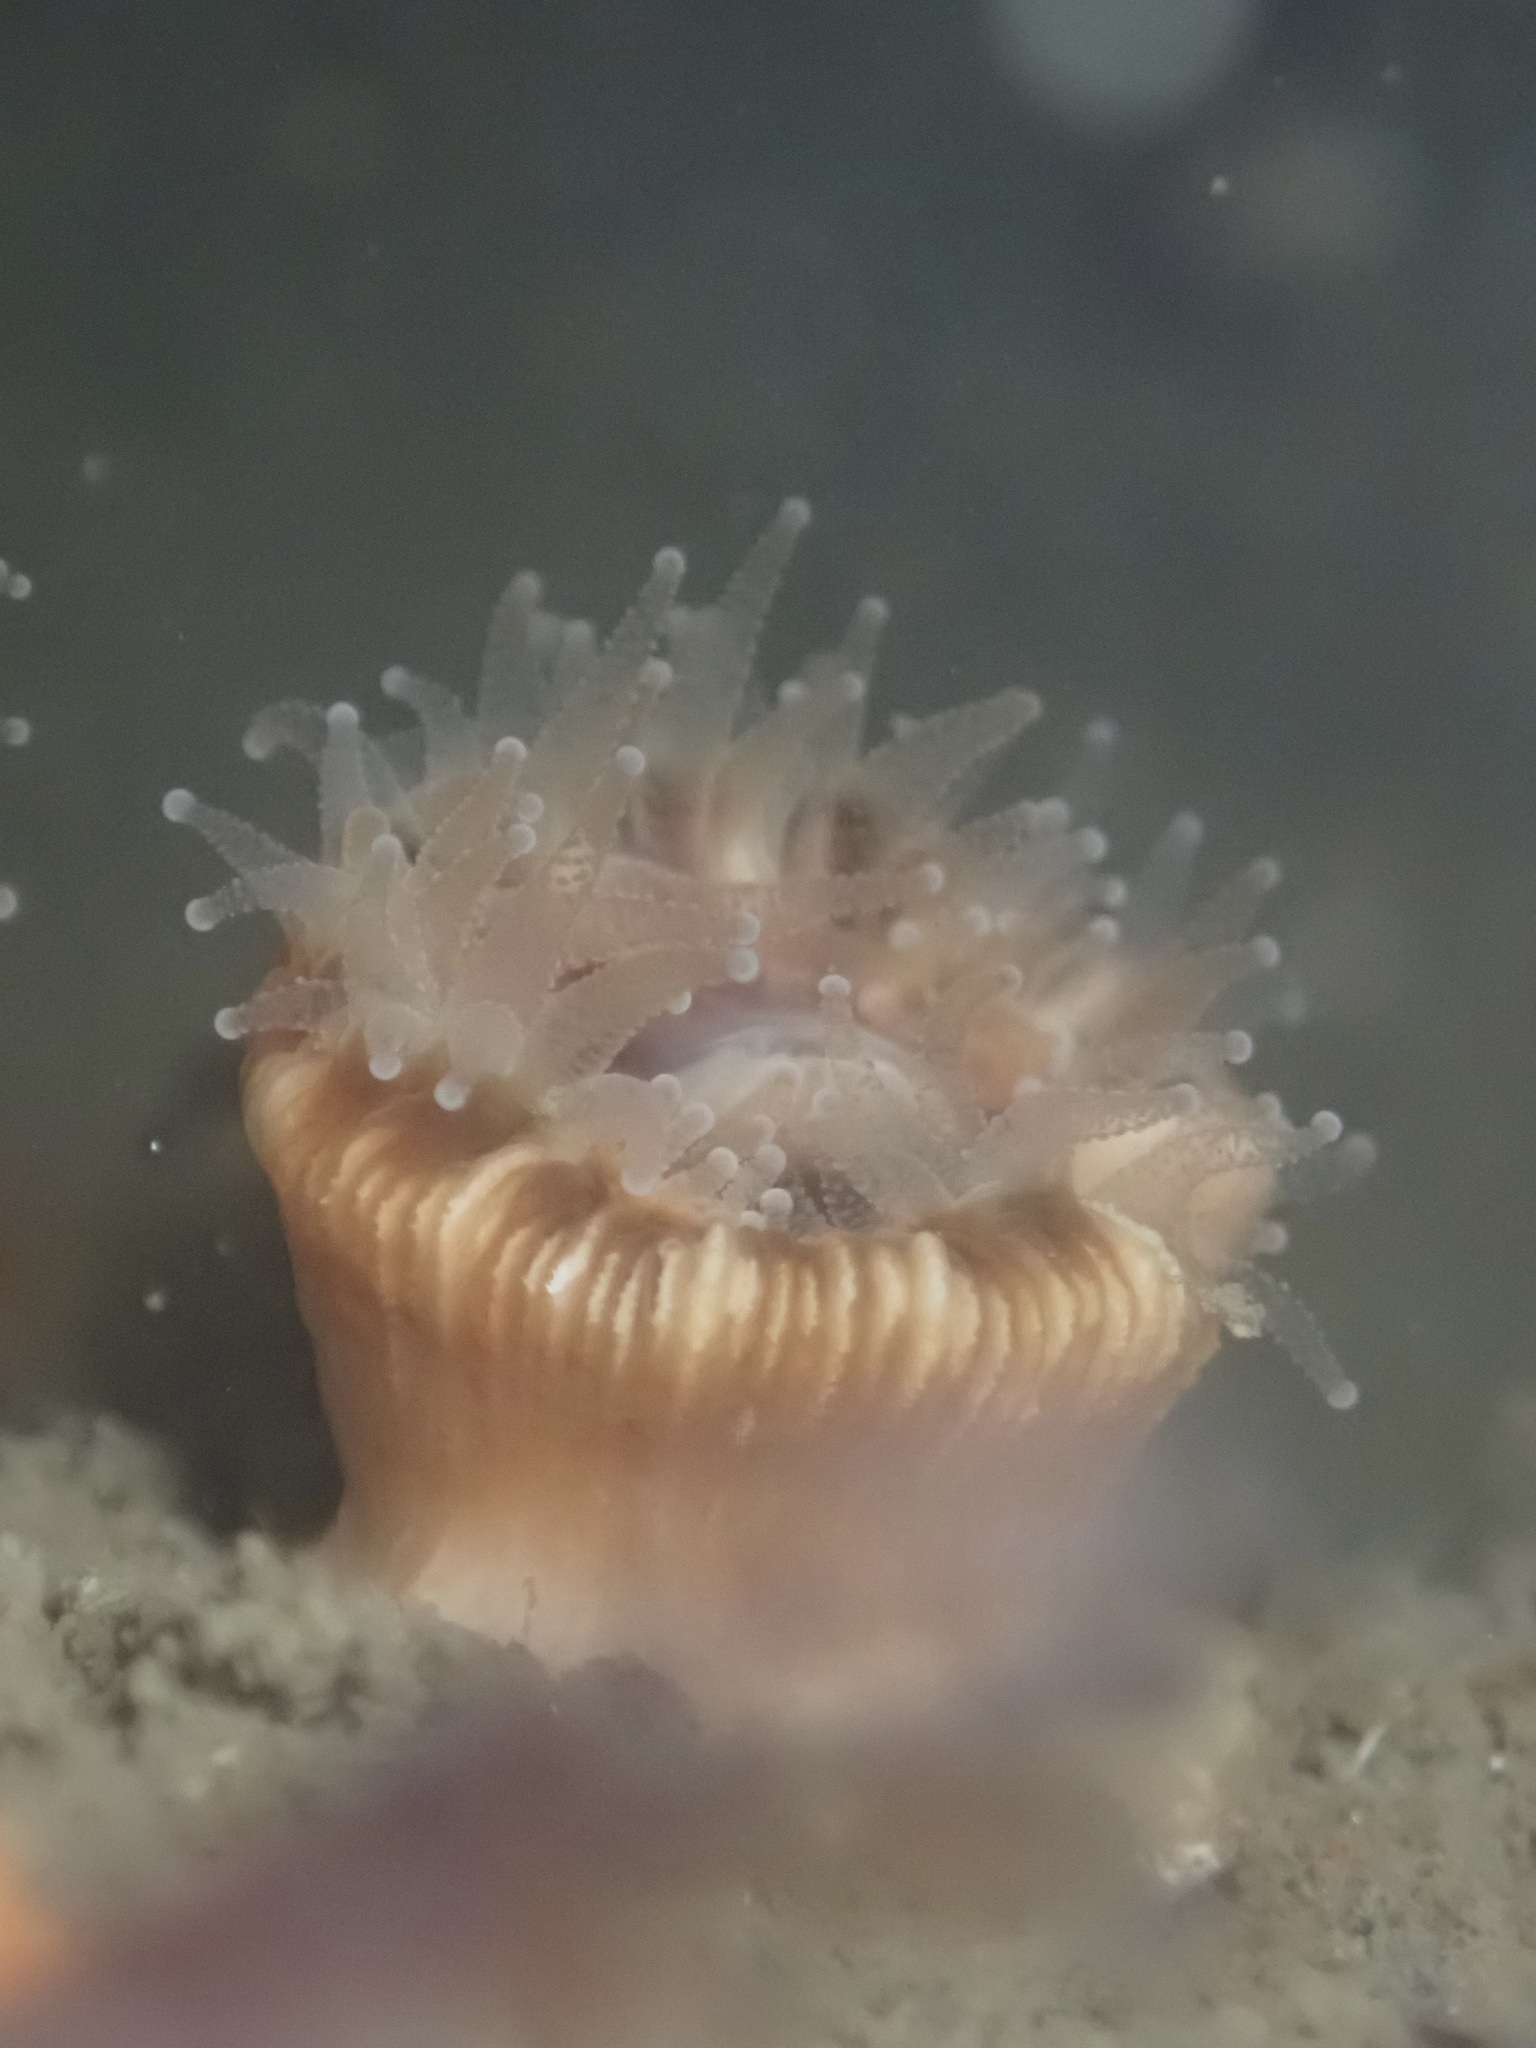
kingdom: Animalia
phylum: Cnidaria
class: Anthozoa
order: Scleractinia
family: Caryophylliidae
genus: Paracyathus
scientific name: Paracyathus stearnsii
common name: Brown stony coral
